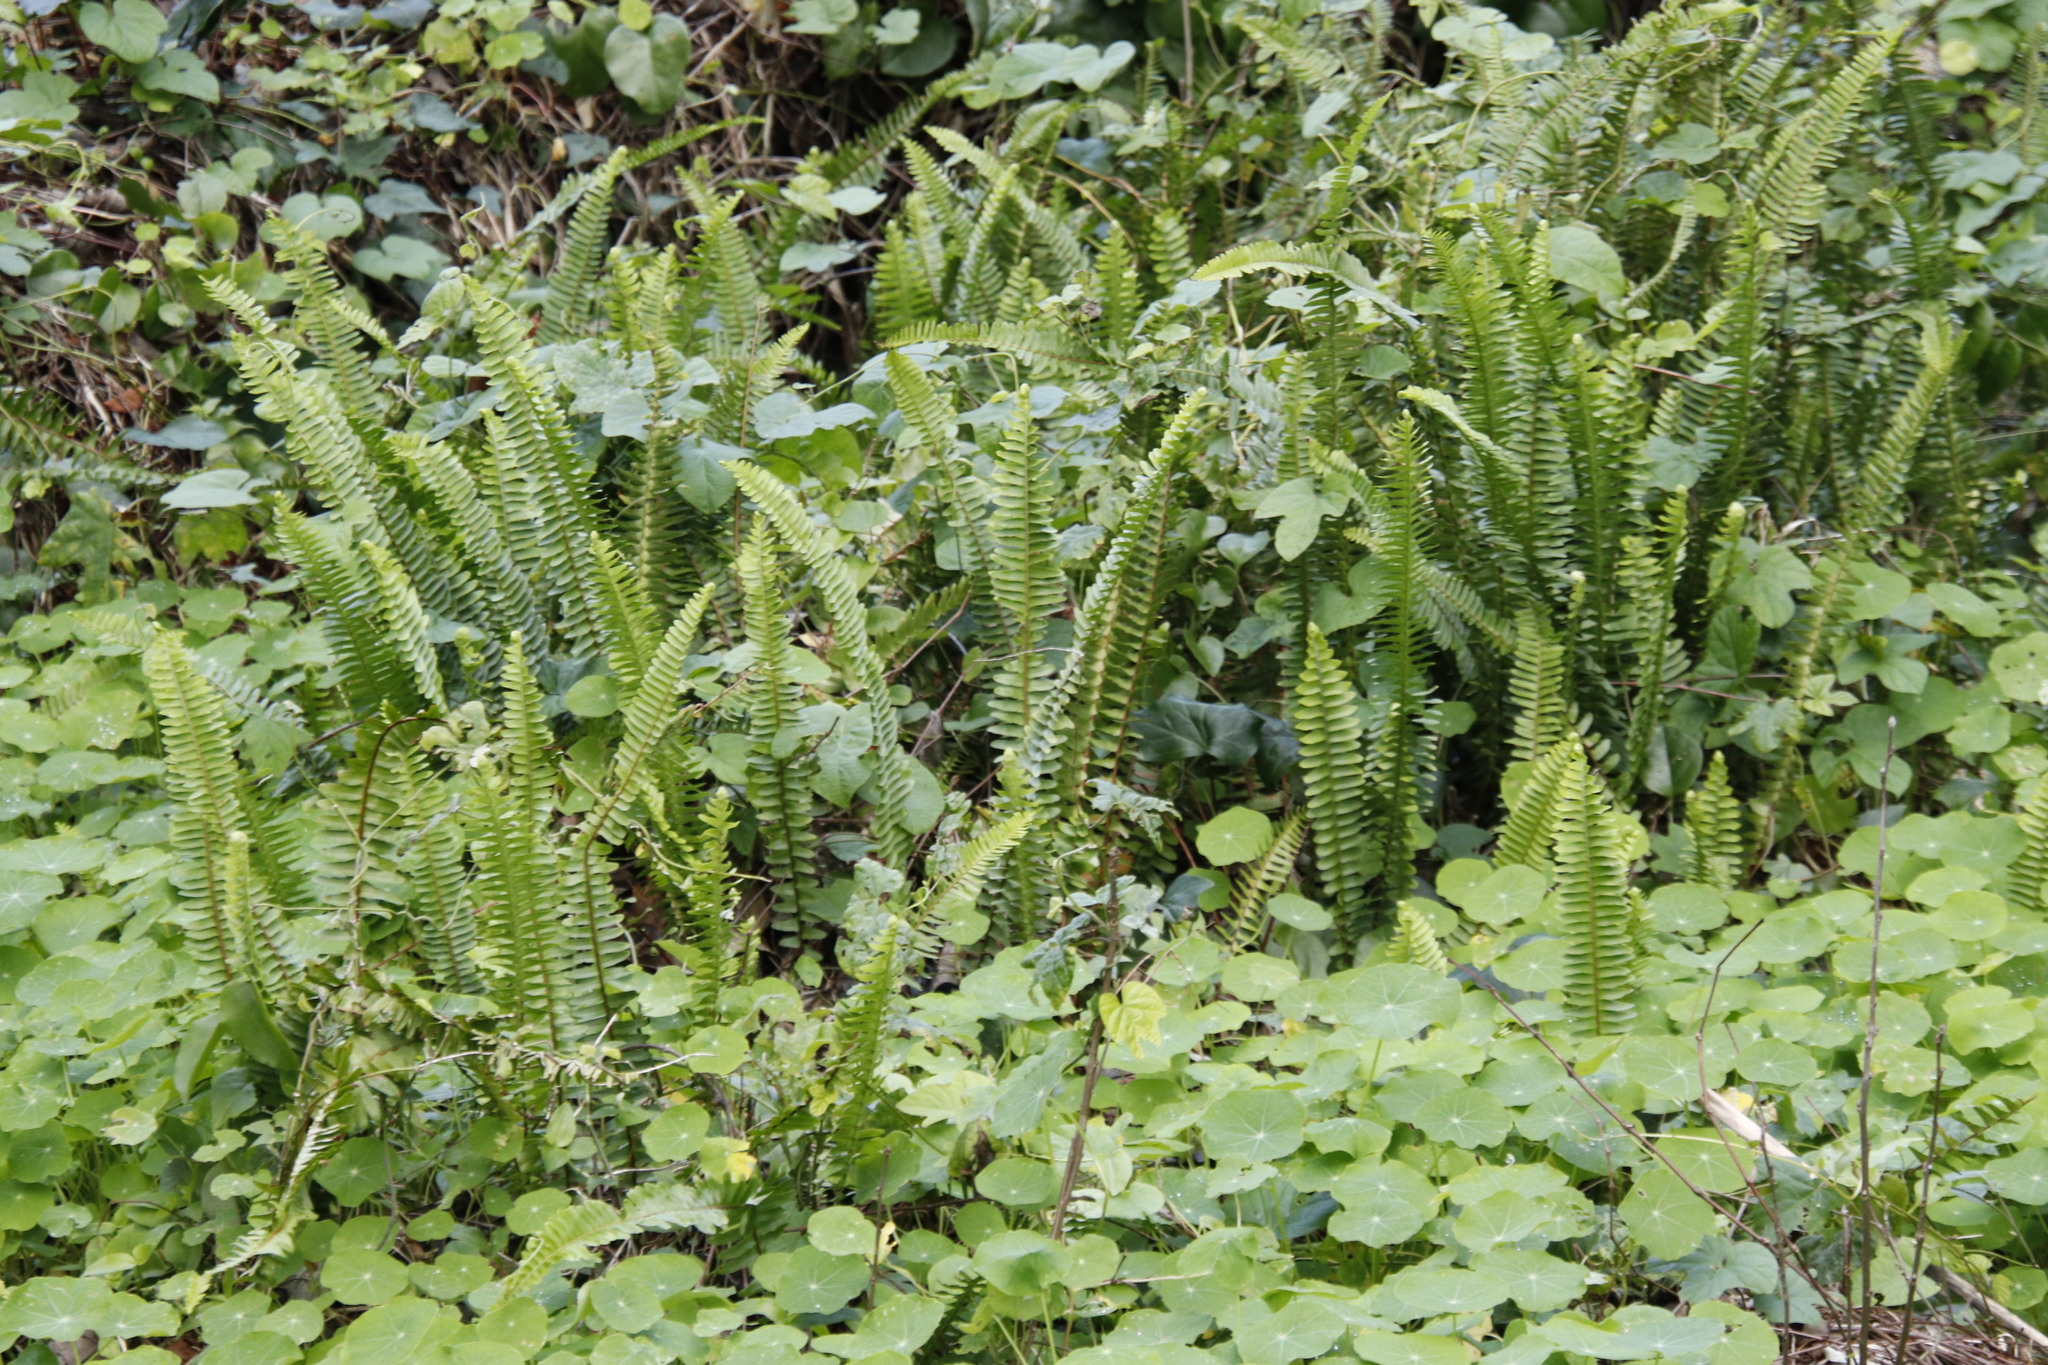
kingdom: Plantae
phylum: Tracheophyta
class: Polypodiopsida
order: Polypodiales
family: Nephrolepidaceae
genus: Nephrolepis
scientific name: Nephrolepis cordifolia
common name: Narrow swordfern
